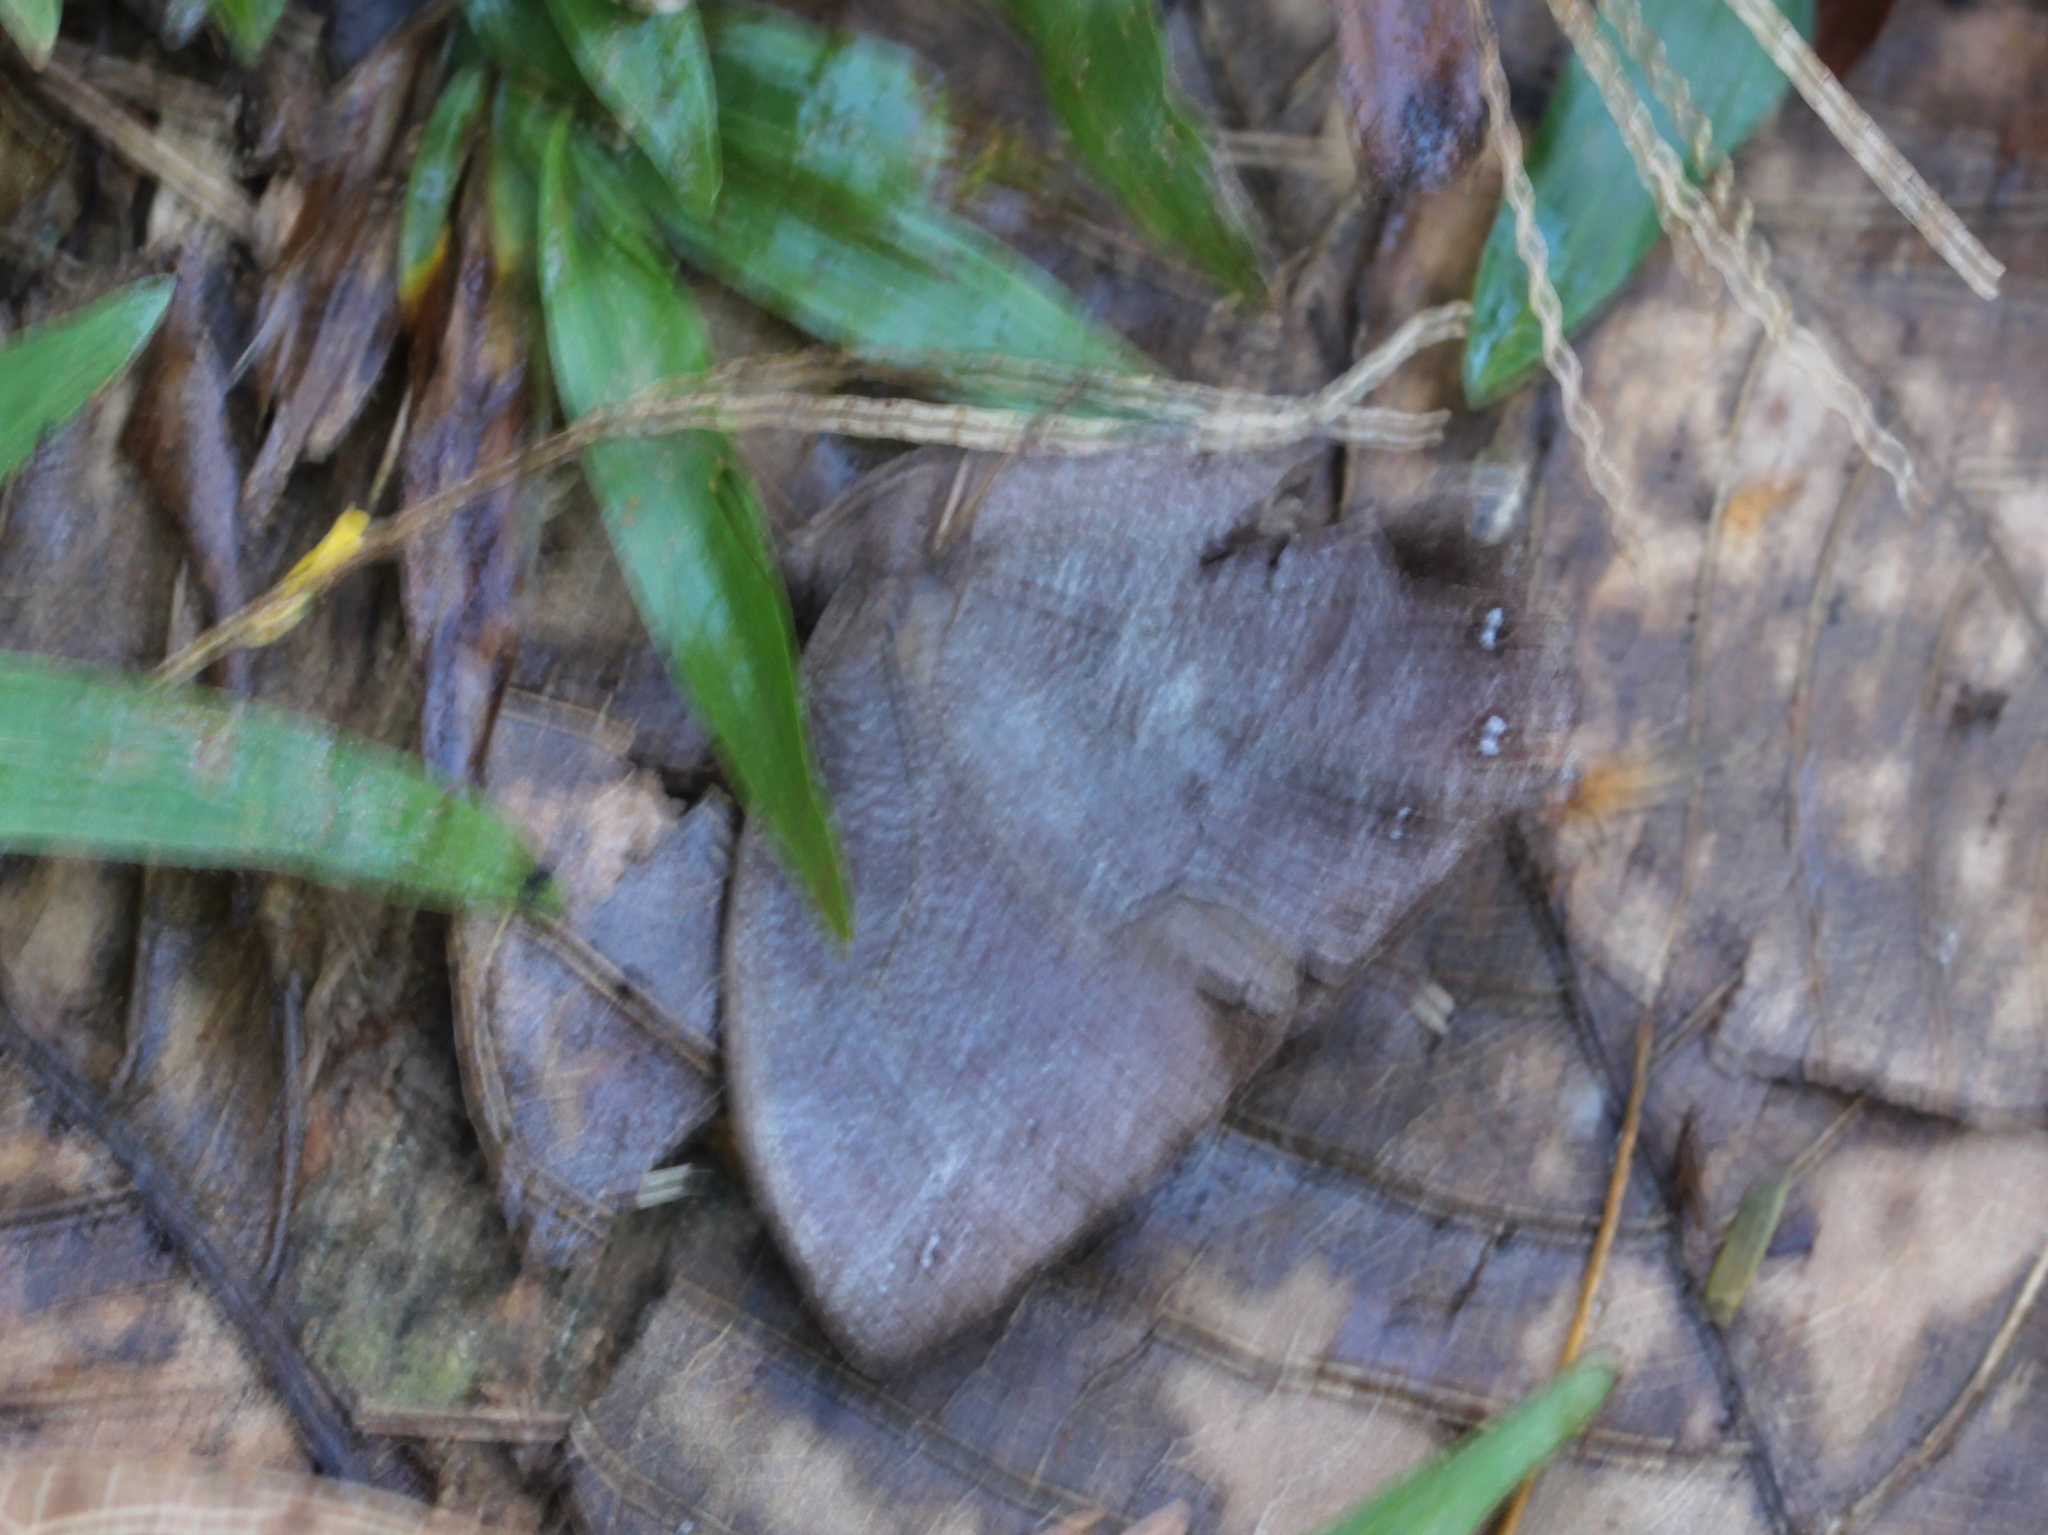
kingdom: Animalia
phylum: Arthropoda
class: Insecta
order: Lepidoptera
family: Nymphalidae
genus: Melanitis
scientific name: Melanitis phedima
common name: Dark evening brown
